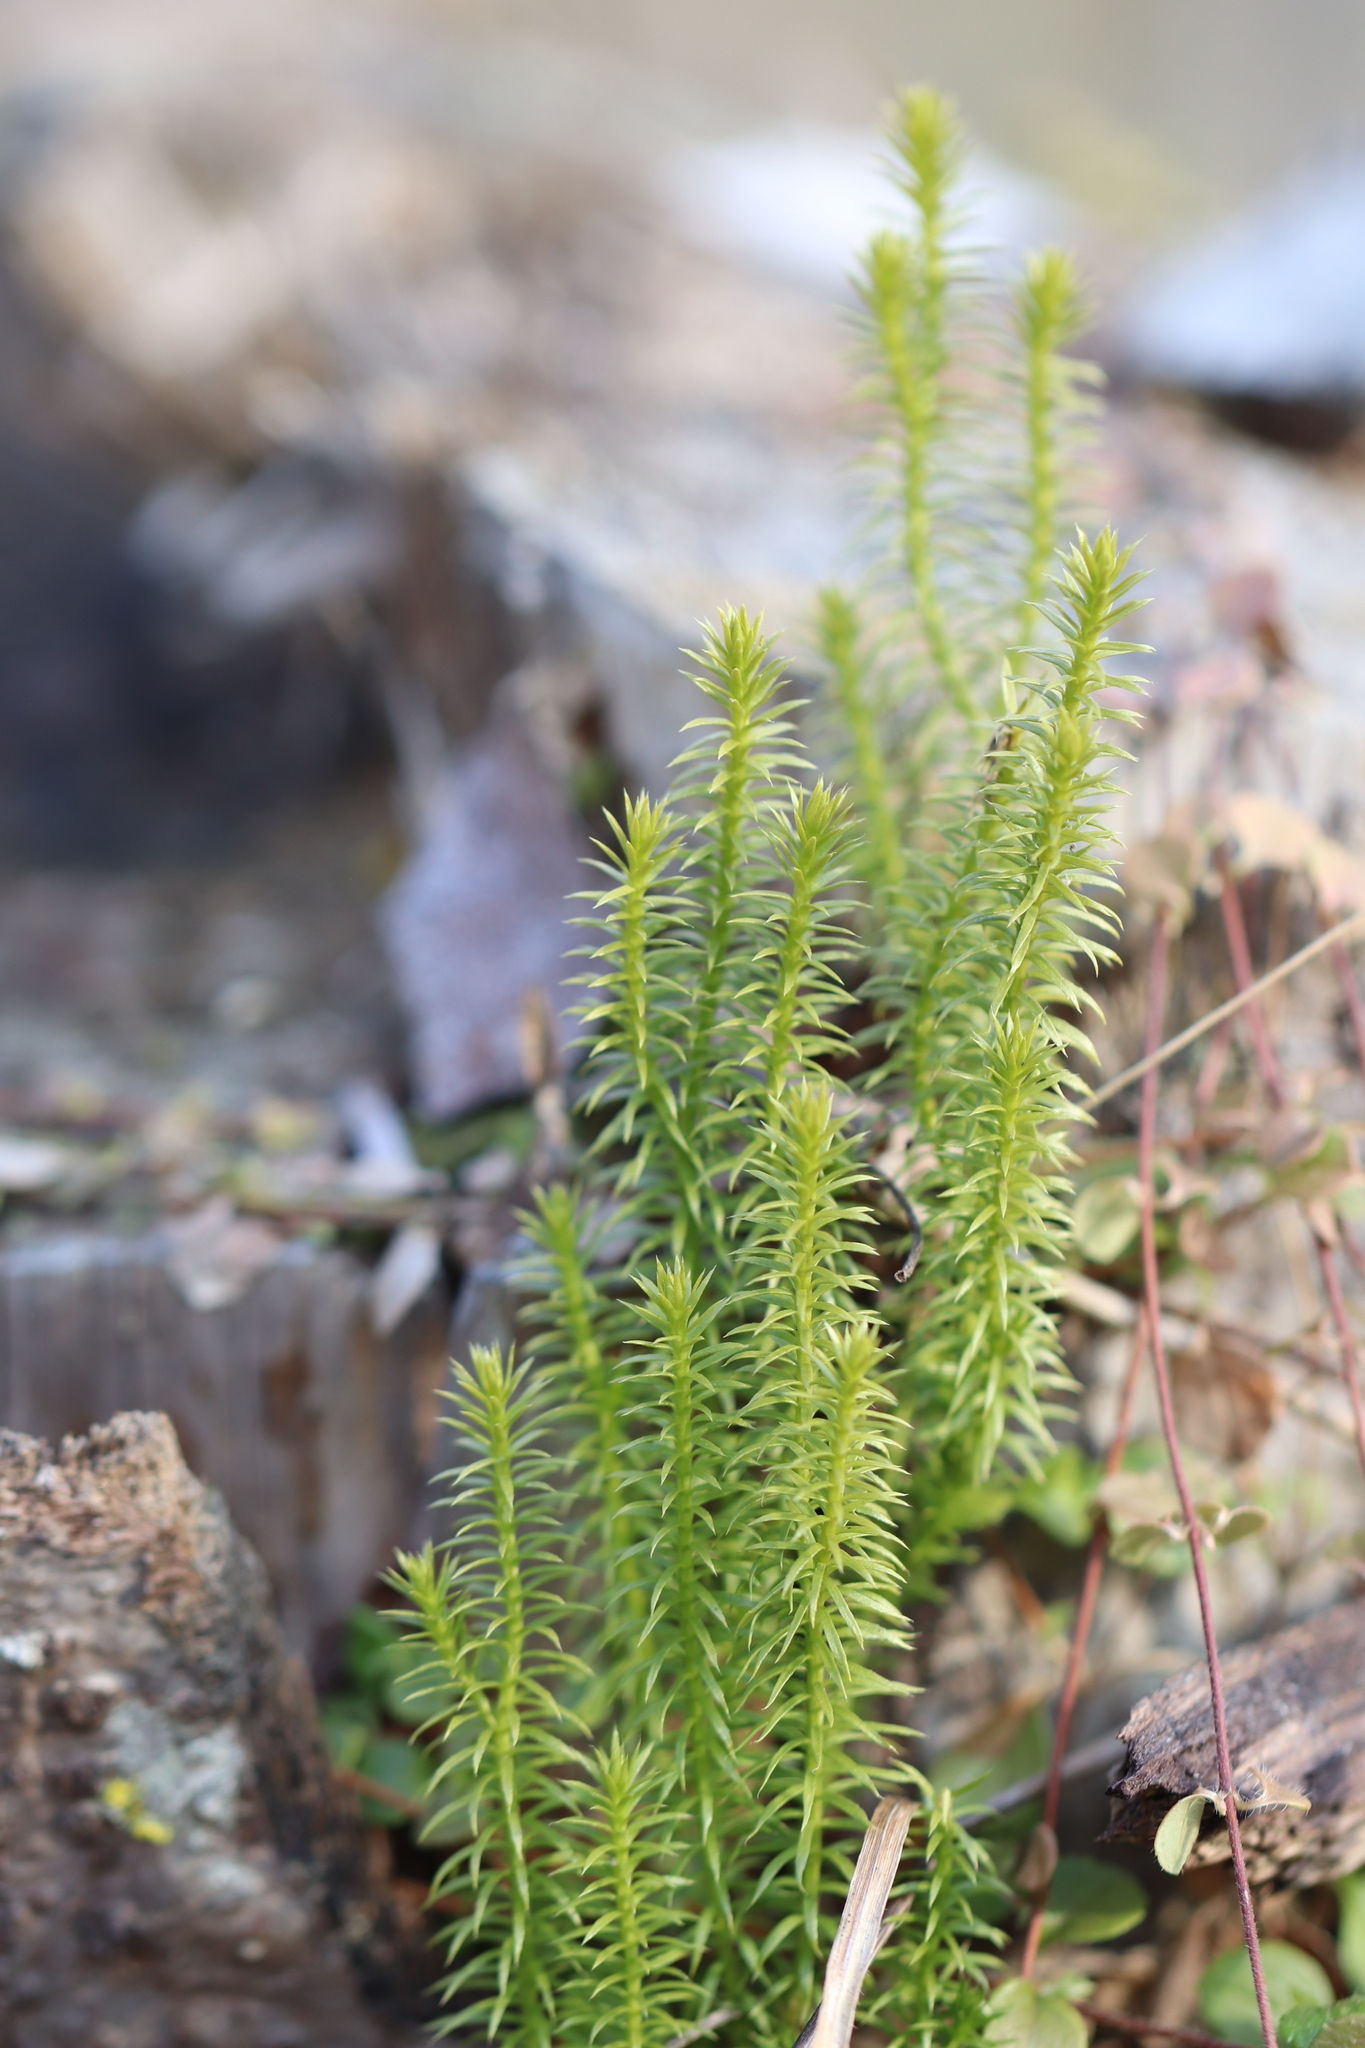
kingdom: Plantae
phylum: Tracheophyta
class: Lycopodiopsida
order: Lycopodiales
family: Lycopodiaceae
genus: Spinulum
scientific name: Spinulum annotinum
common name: Interrupted club-moss
